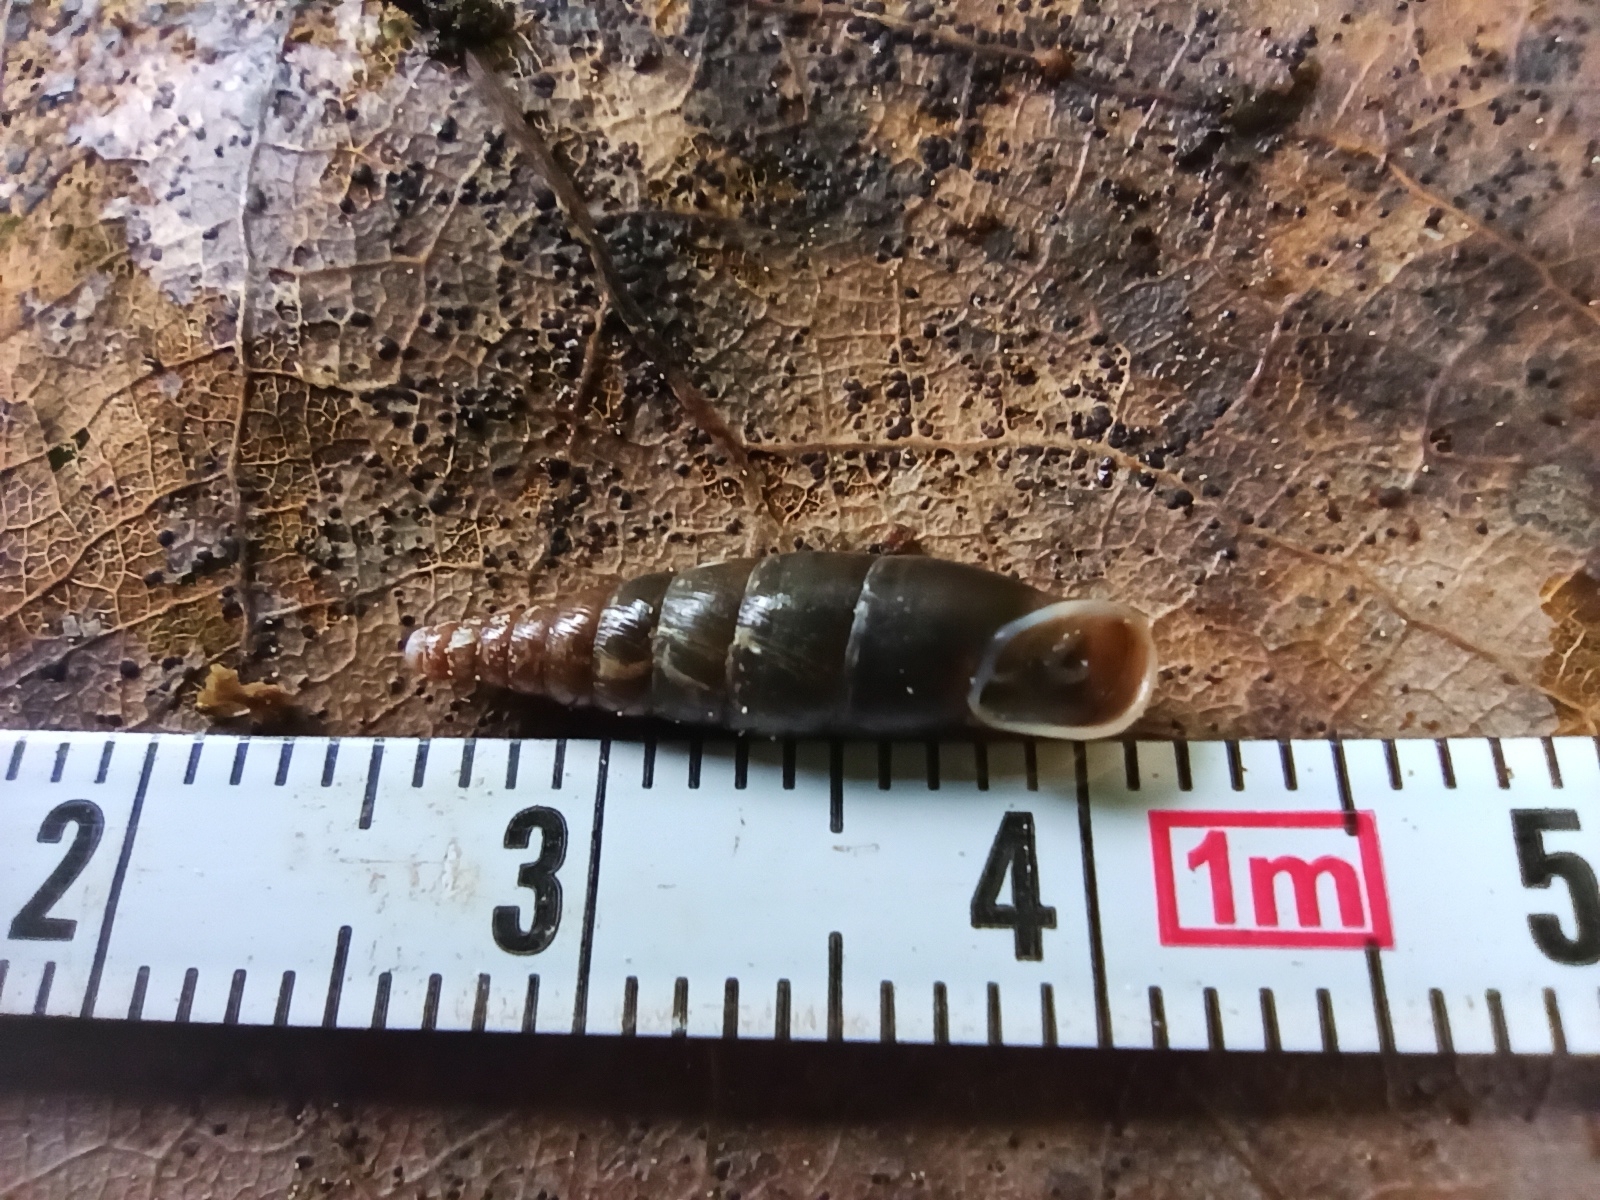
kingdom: Animalia
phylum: Mollusca
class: Gastropoda
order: Stylommatophora
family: Clausiliidae
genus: Cochlodina
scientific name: Cochlodina laminata
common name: Plaited door snail
